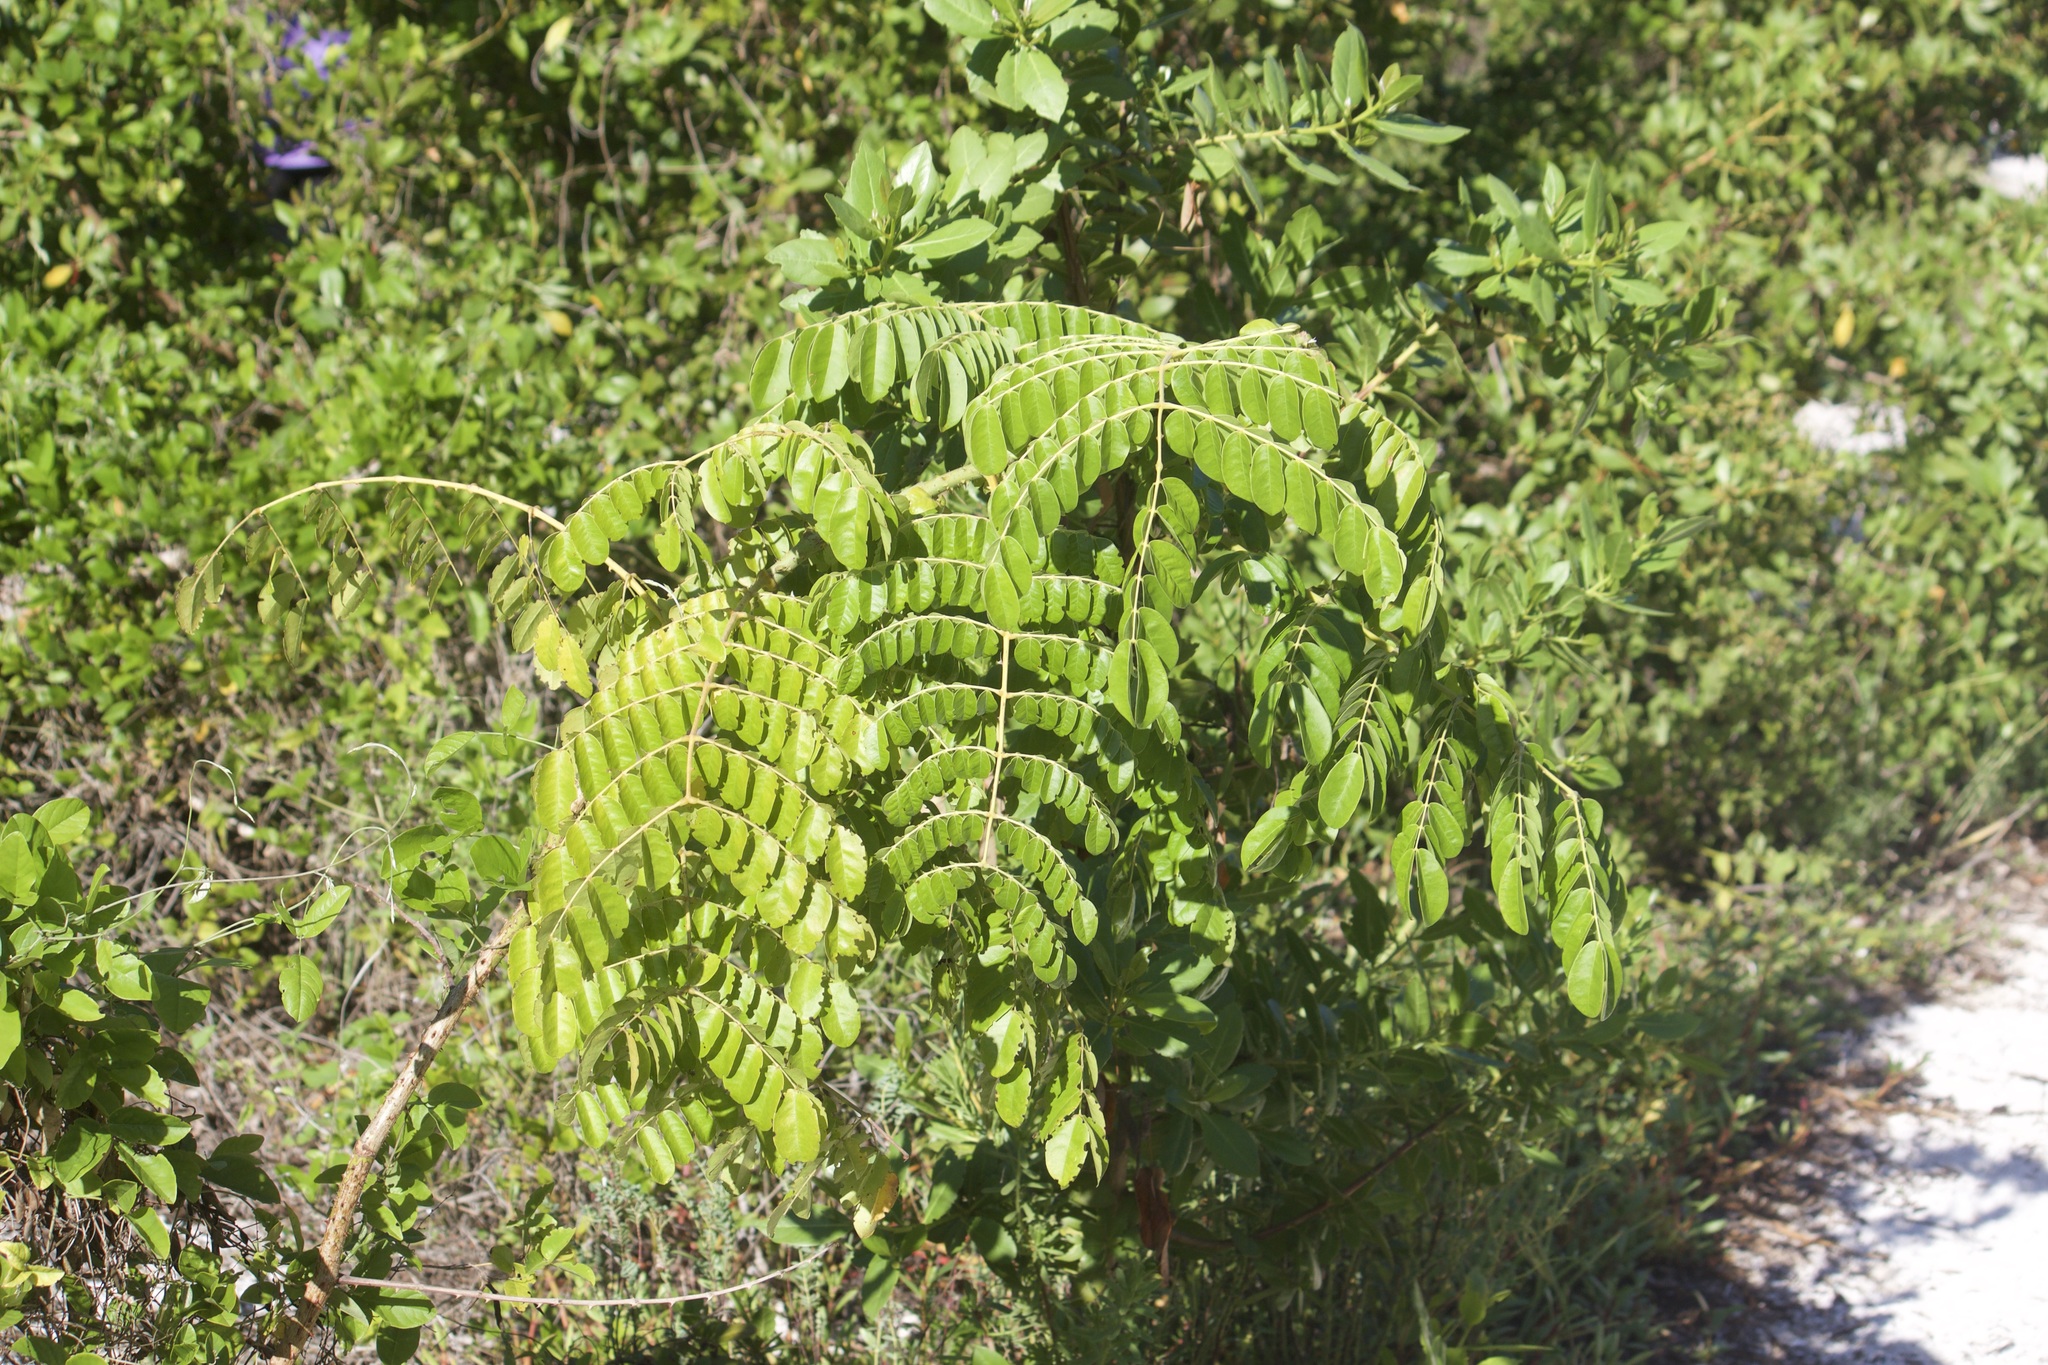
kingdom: Plantae
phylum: Tracheophyta
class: Magnoliopsida
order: Fabales
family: Fabaceae
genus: Guilandina
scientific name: Guilandina bonduc
